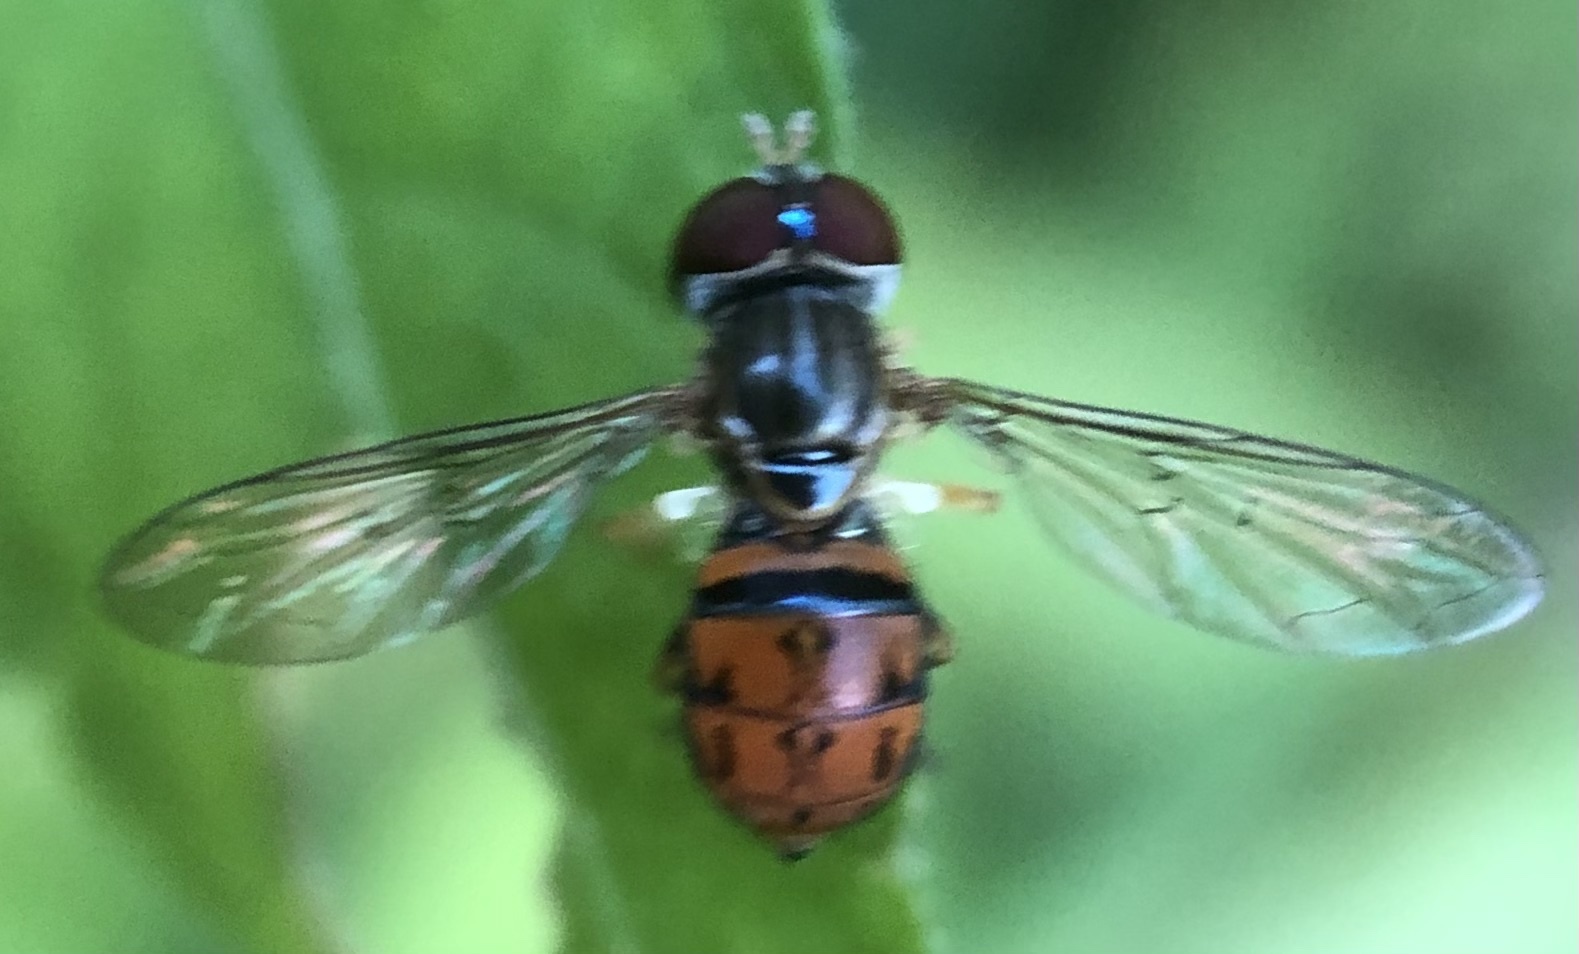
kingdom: Animalia
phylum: Arthropoda
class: Insecta
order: Diptera
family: Syrphidae
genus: Toxomerus
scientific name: Toxomerus boscii
